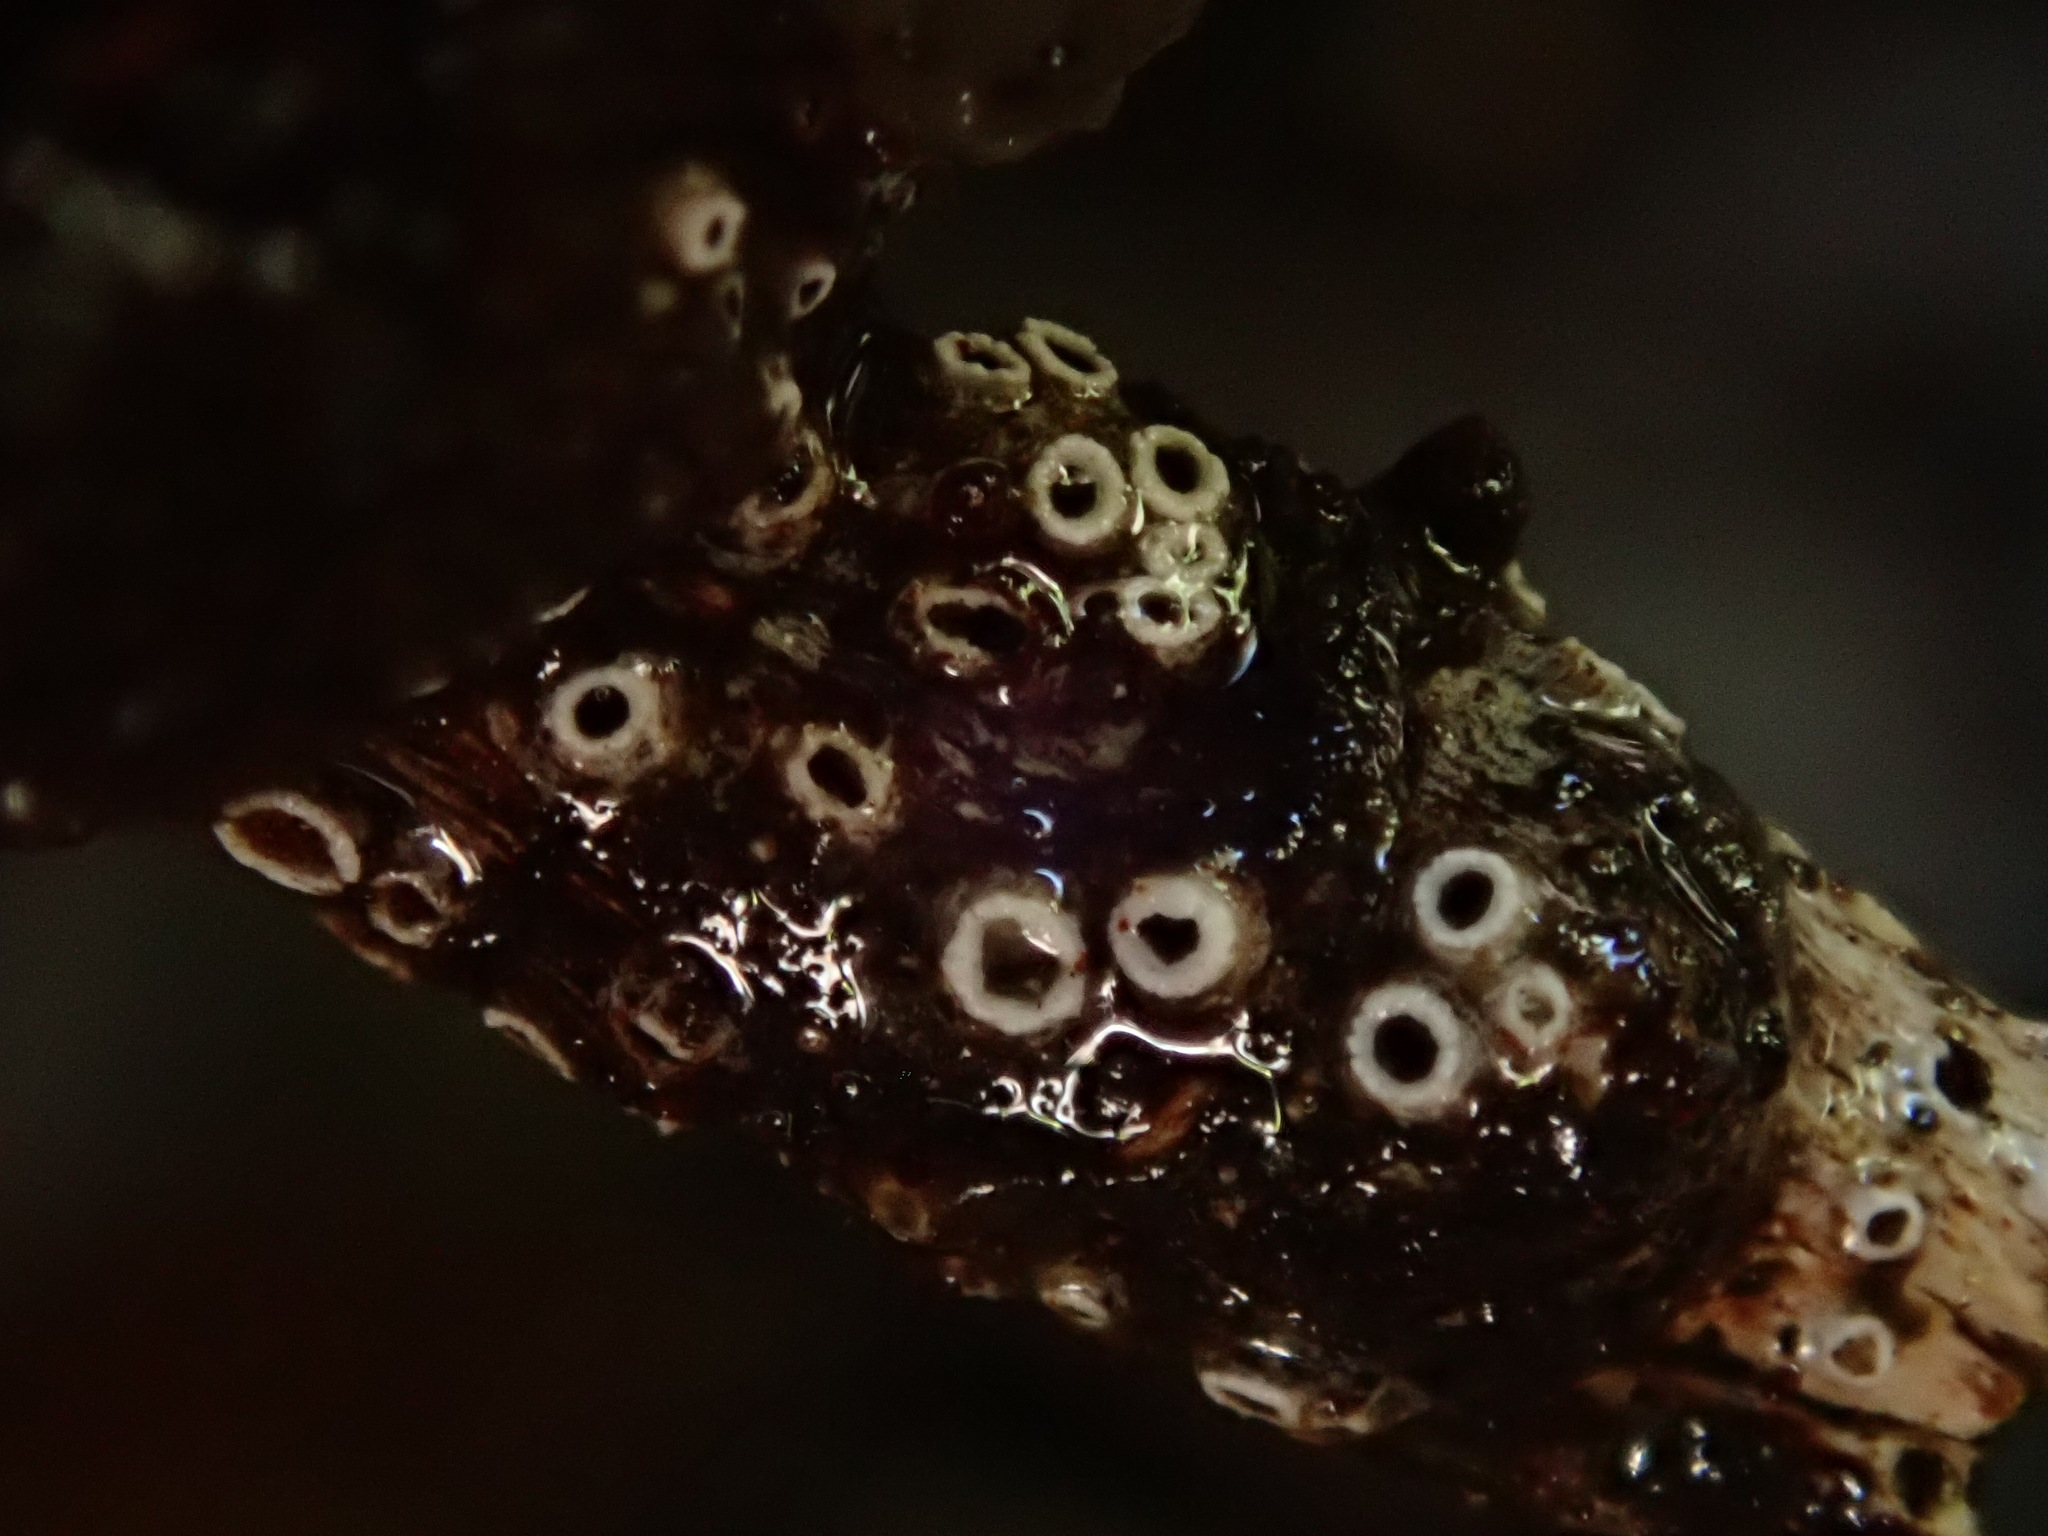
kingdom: Fungi
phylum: Ascomycota
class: Lecanoromycetes
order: Ostropales
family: Stictidaceae
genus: Stictis
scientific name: Stictis radiata
